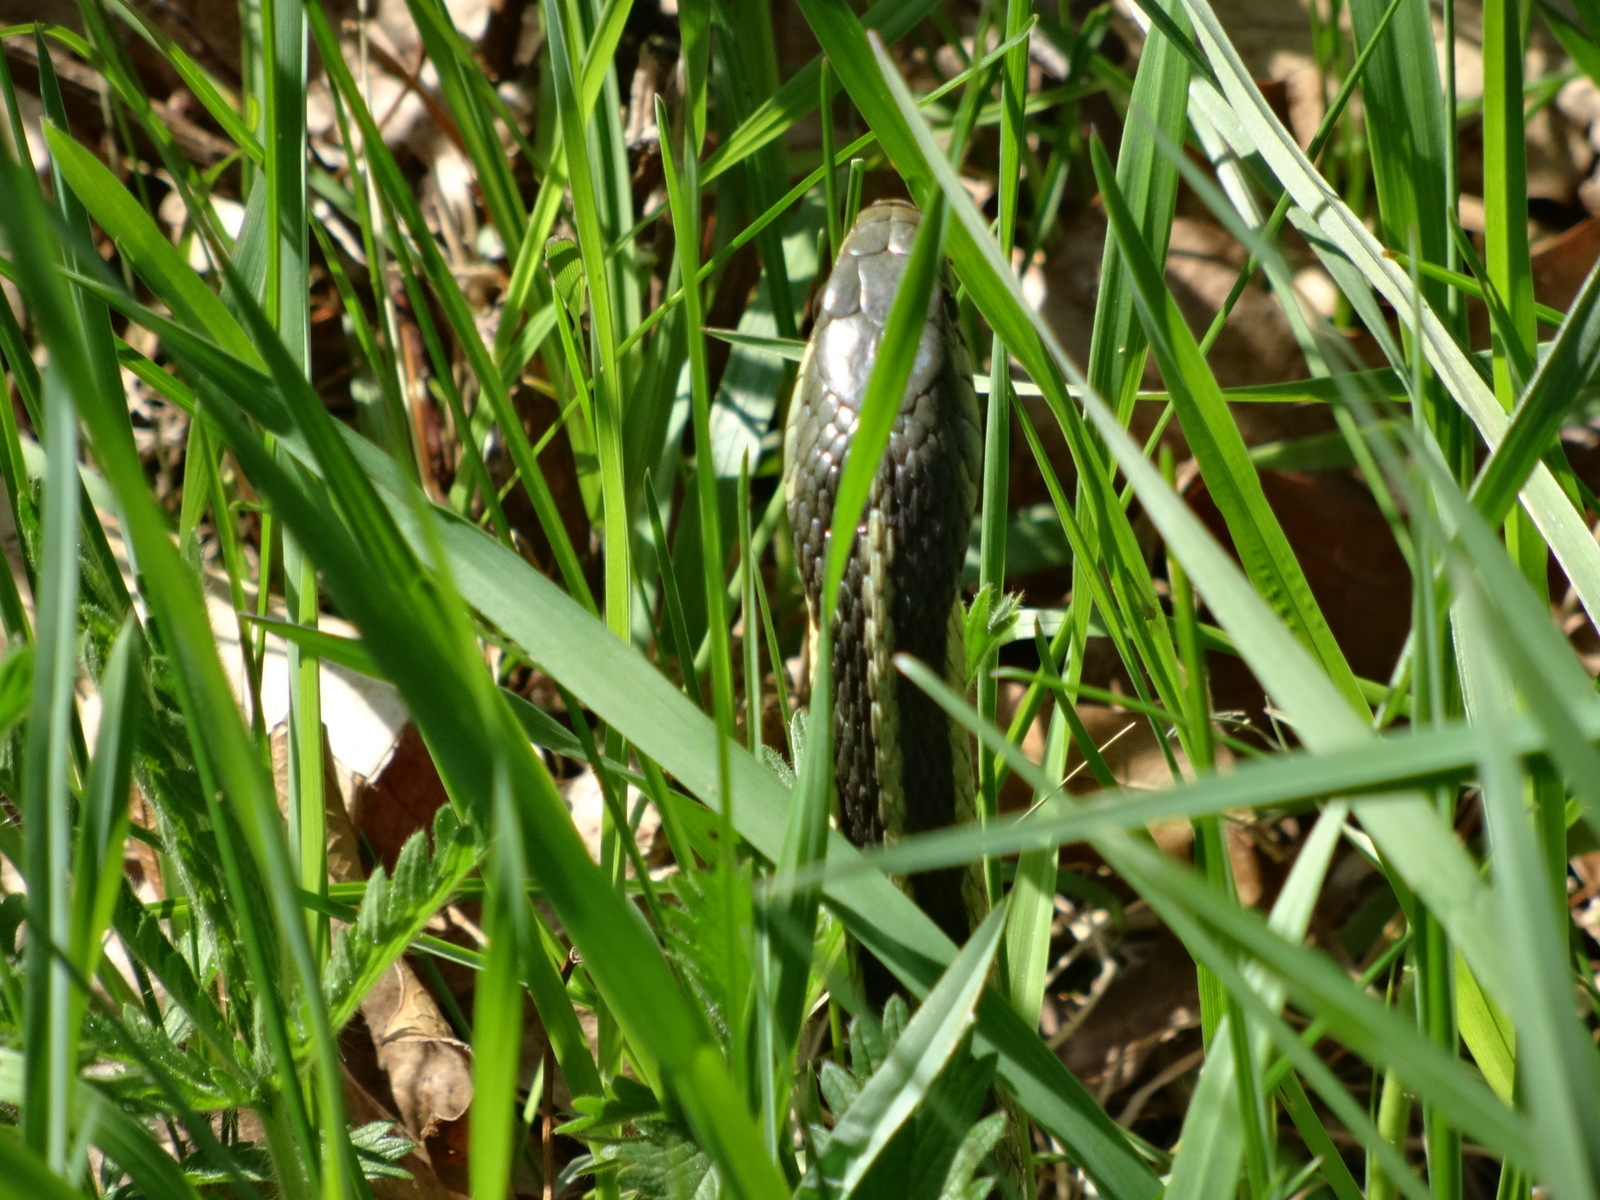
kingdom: Animalia
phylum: Chordata
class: Squamata
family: Colubridae
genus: Thamnophis
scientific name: Thamnophis sirtalis
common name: Common garter snake
